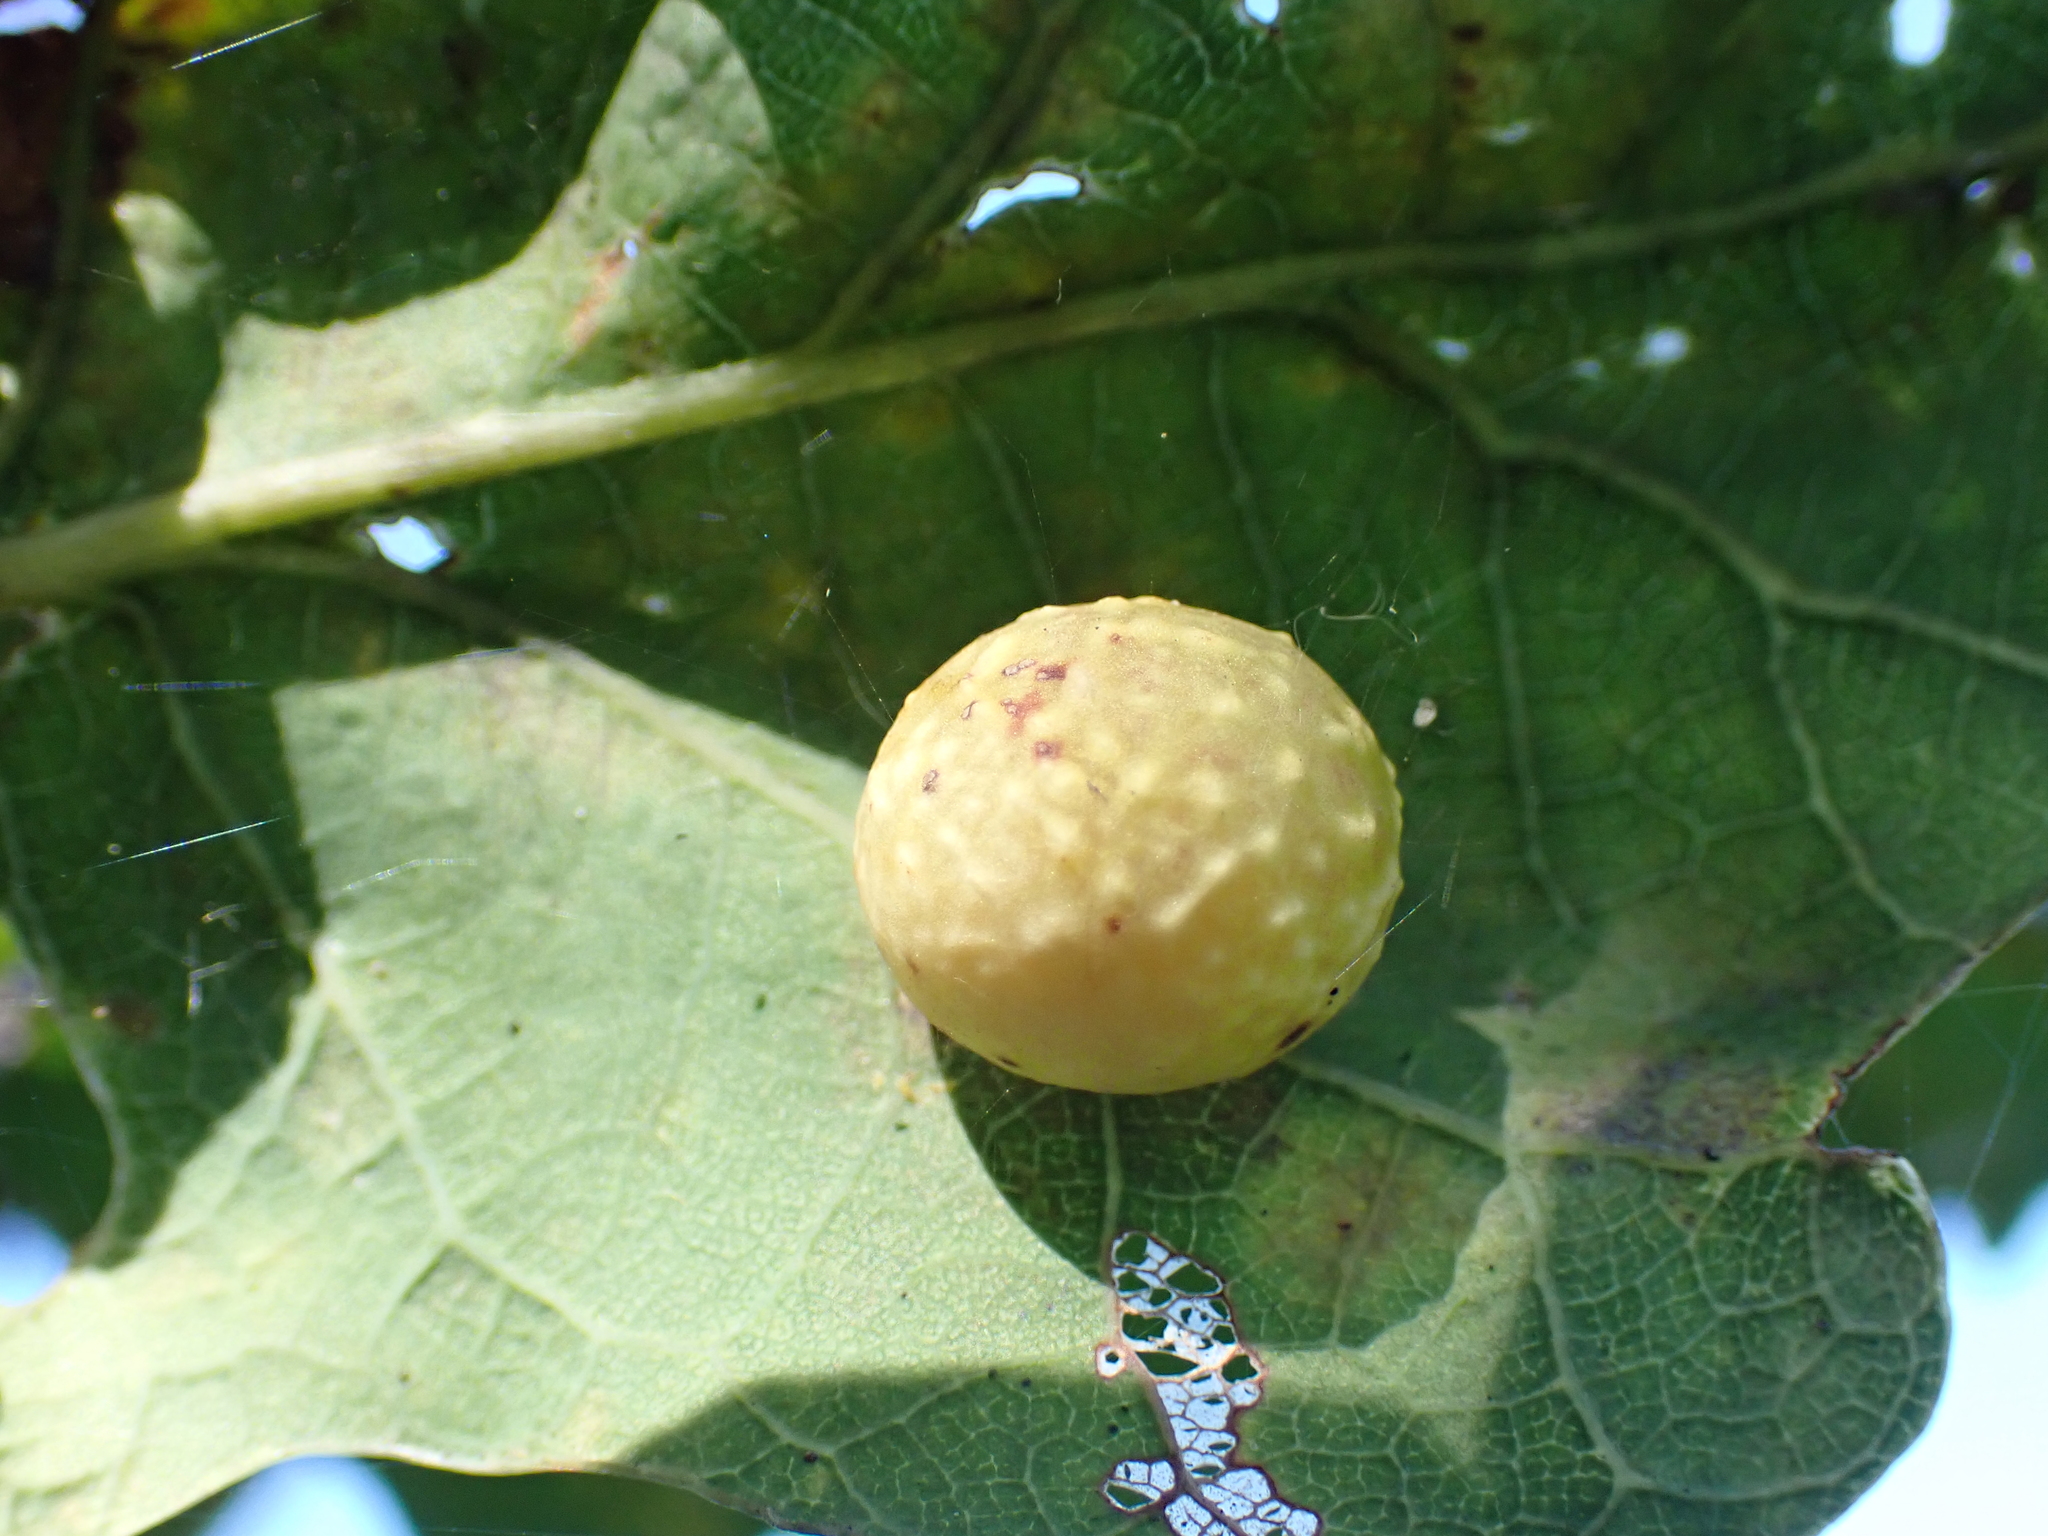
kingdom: Animalia
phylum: Arthropoda
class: Insecta
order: Hymenoptera
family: Cynipidae
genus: Cynips
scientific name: Cynips longiventris
